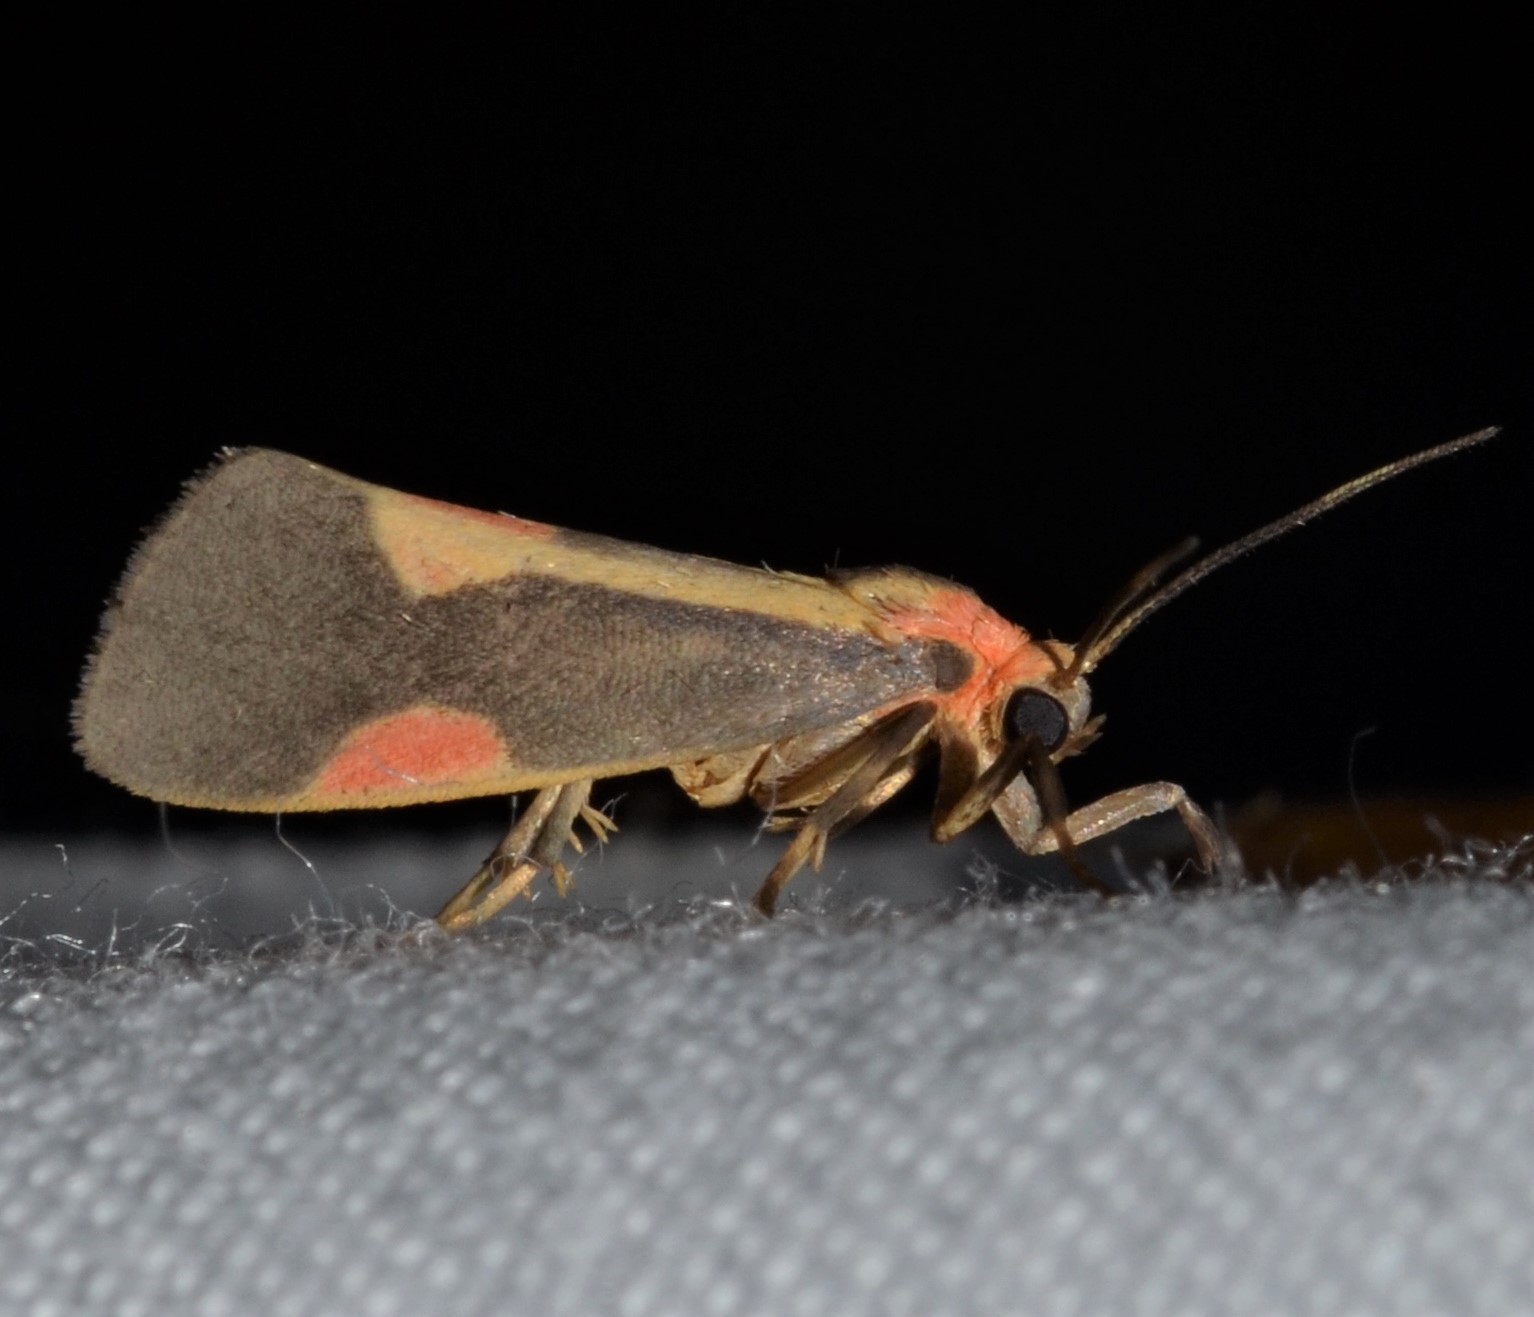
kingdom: Animalia
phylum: Arthropoda
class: Insecta
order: Lepidoptera
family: Erebidae
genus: Cisthene
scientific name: Cisthene packardii
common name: Packard's lichen moth
